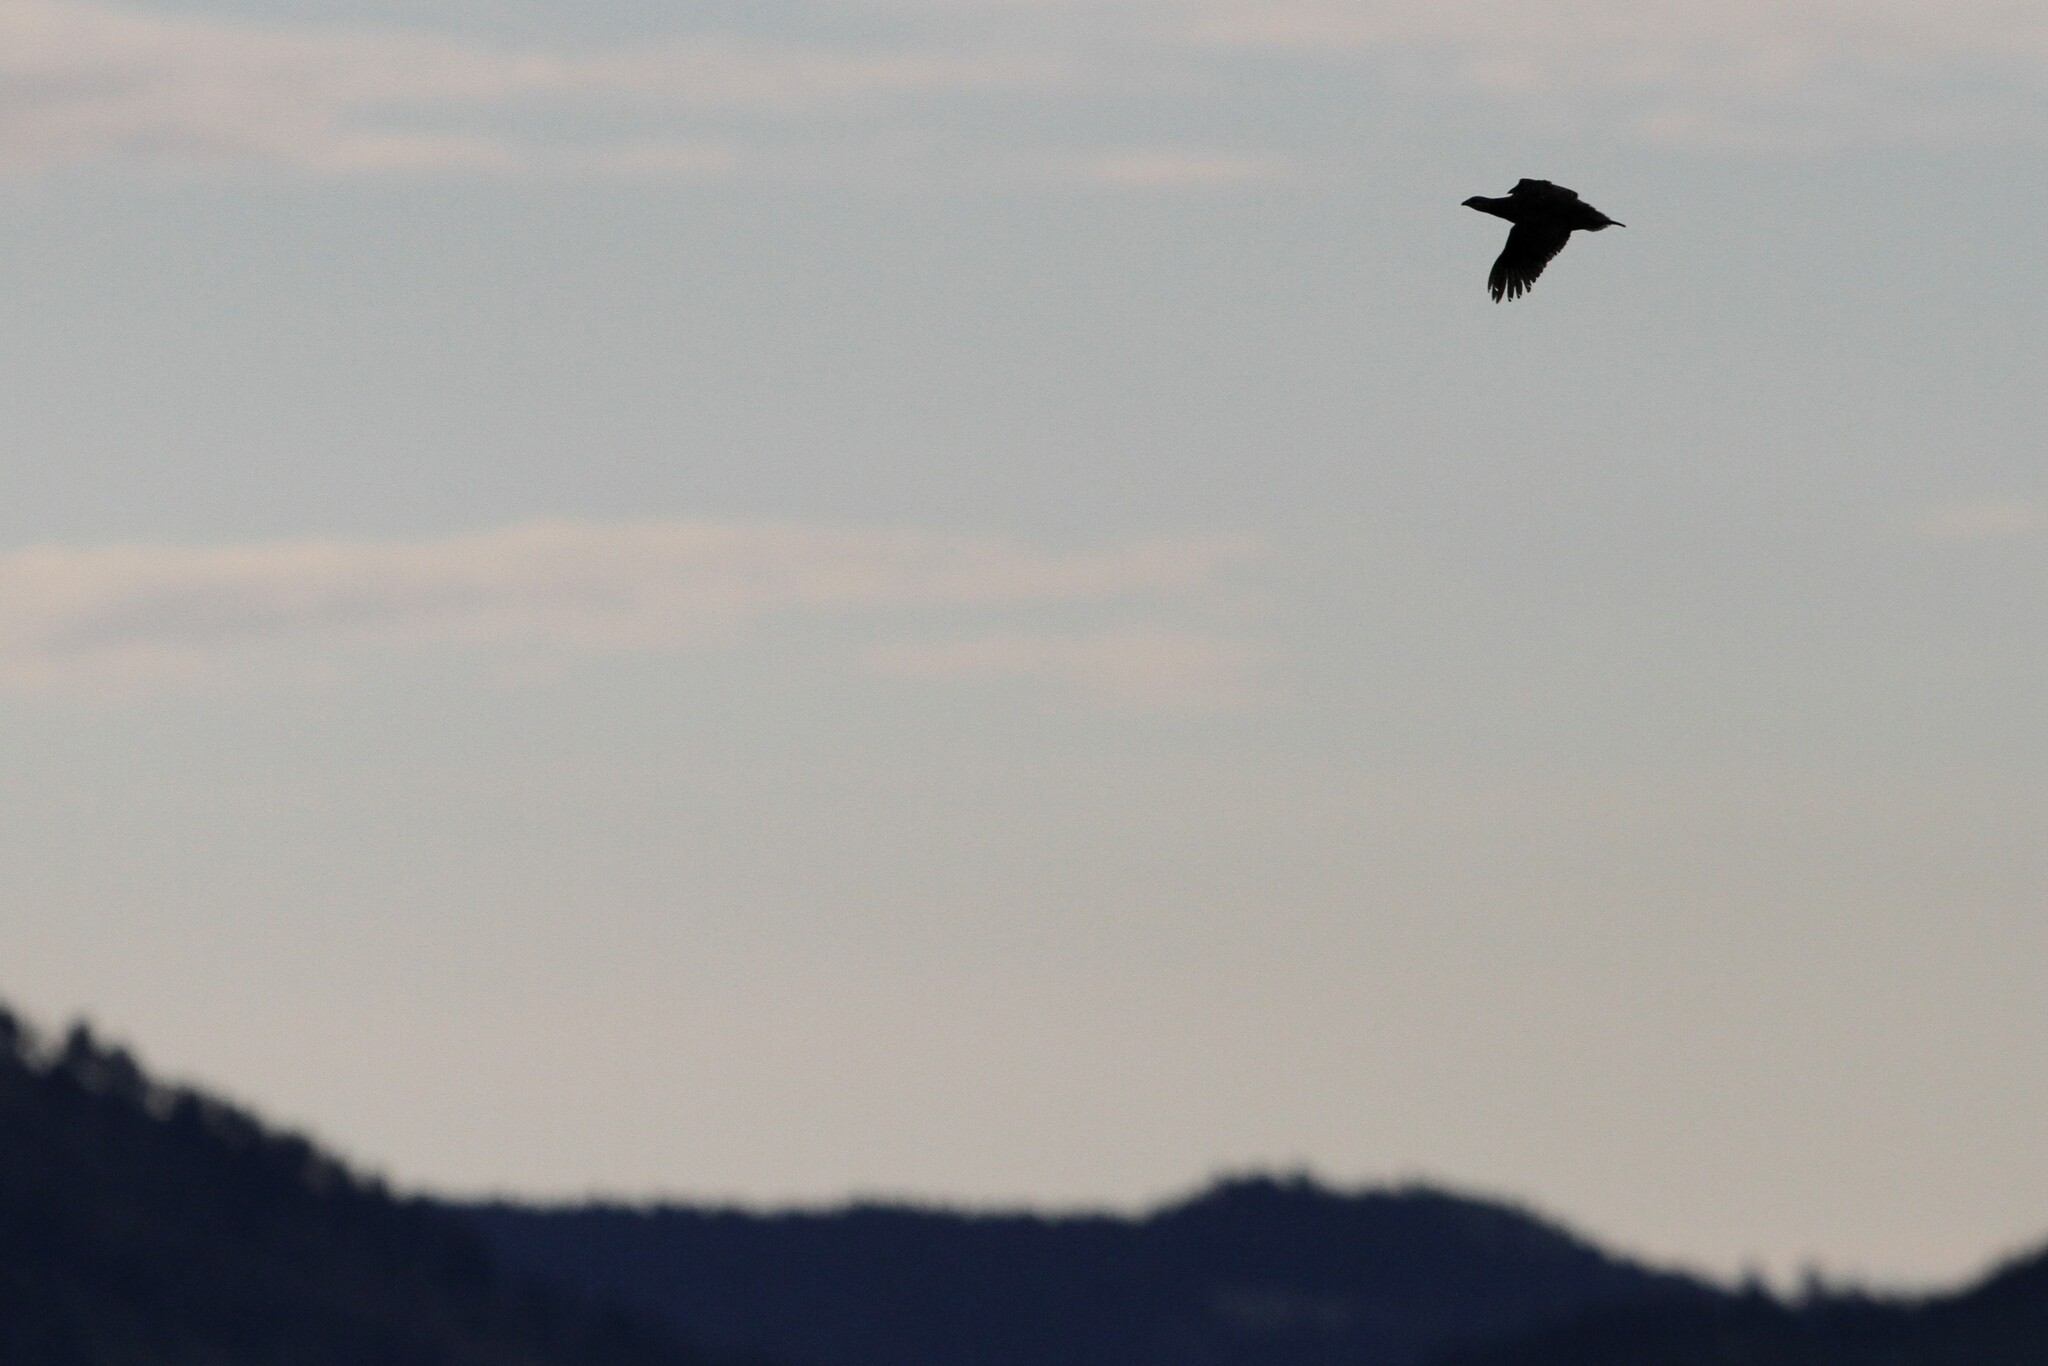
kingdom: Animalia
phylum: Chordata
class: Aves
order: Galliformes
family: Phasianidae
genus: Tympanuchus
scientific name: Tympanuchus phasianellus
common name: Sharp-tailed grouse
